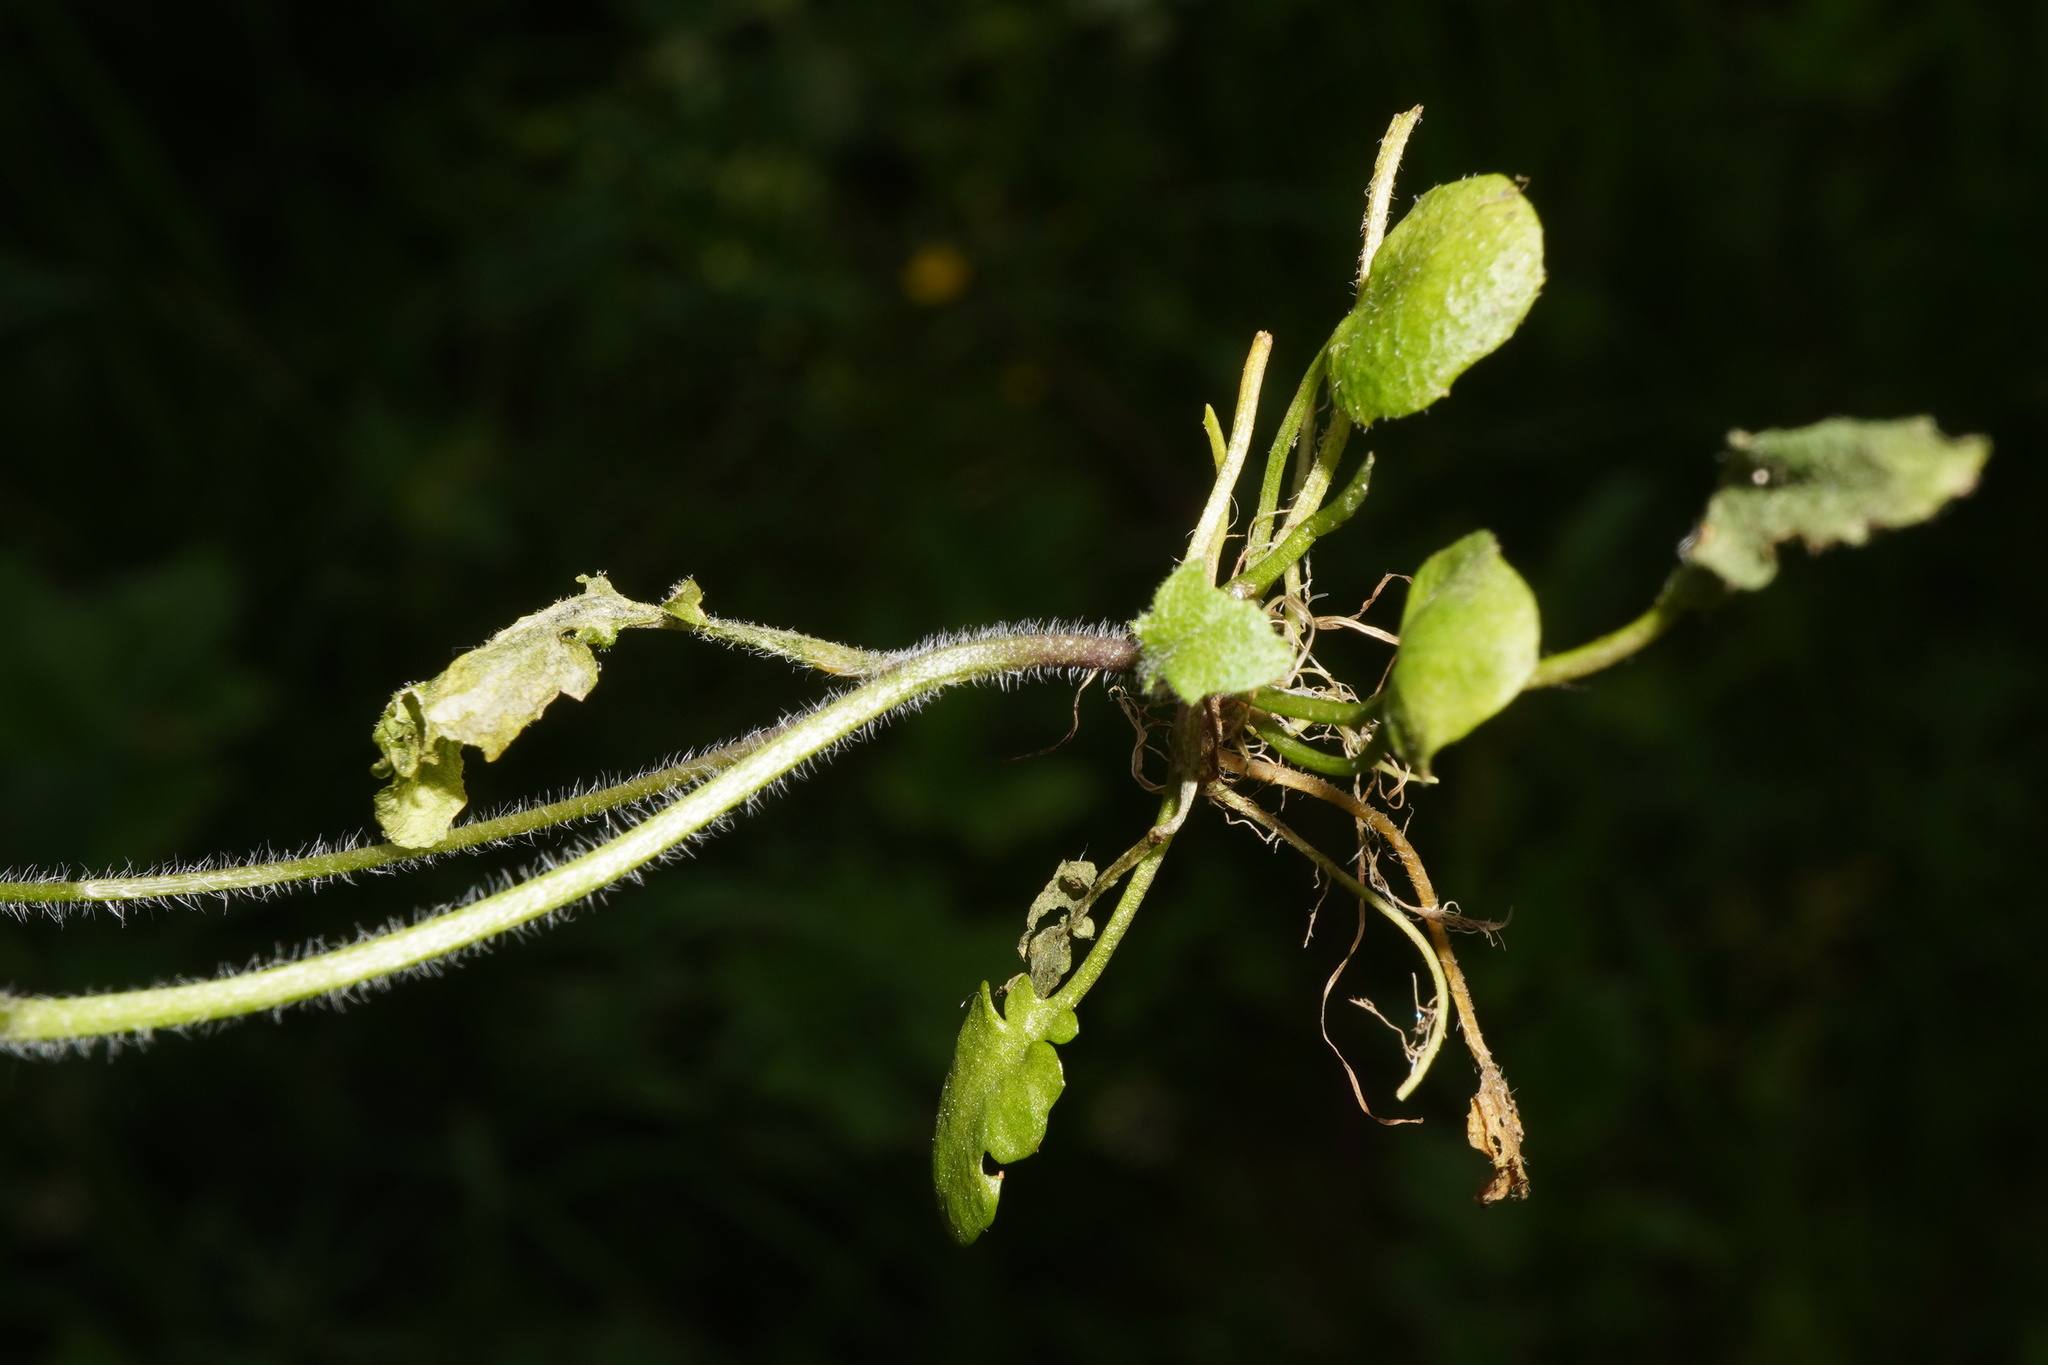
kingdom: Plantae
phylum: Tracheophyta
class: Magnoliopsida
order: Brassicales
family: Brassicaceae
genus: Arabidopsis
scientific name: Arabidopsis halleri
